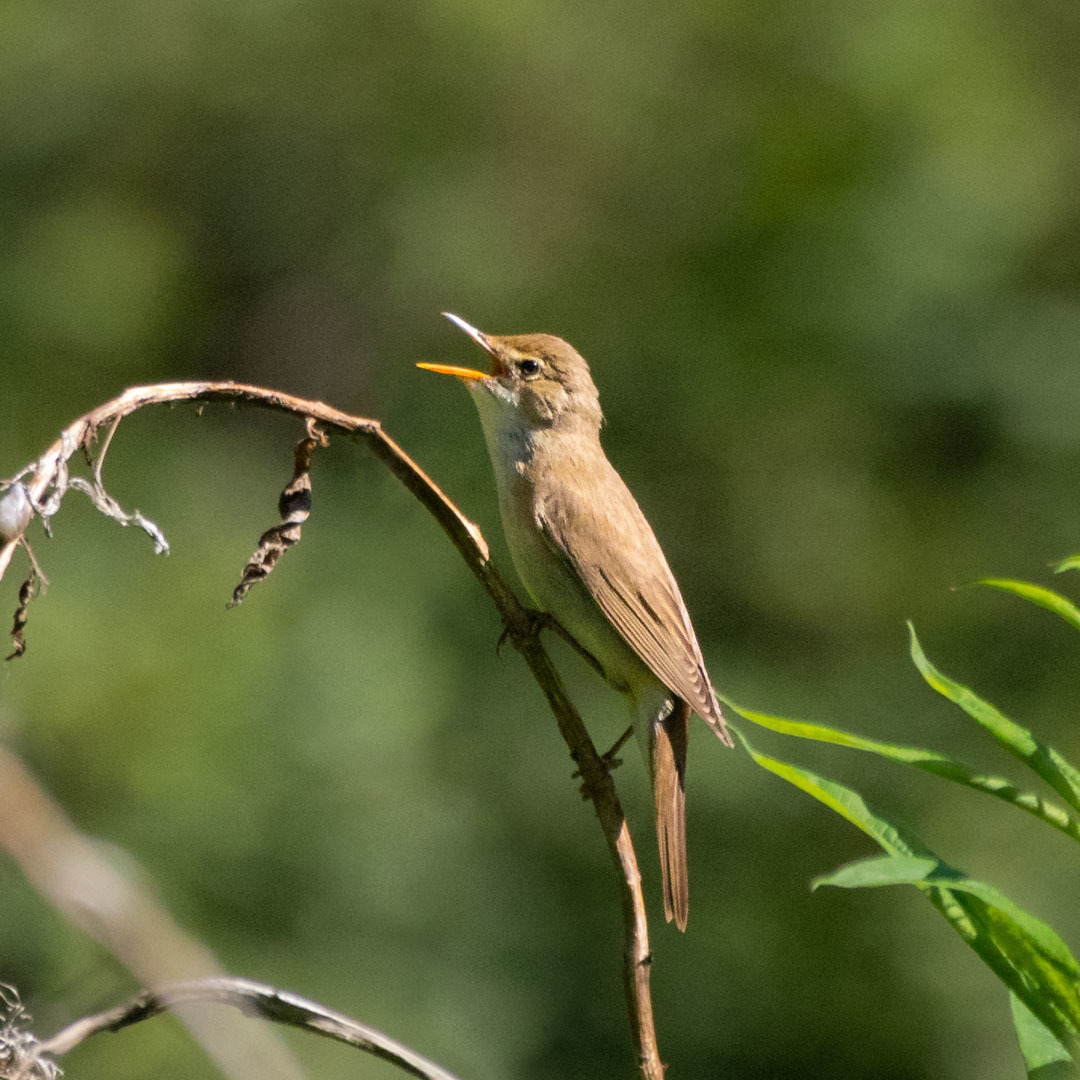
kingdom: Animalia
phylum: Chordata
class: Aves
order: Passeriformes
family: Acrocephalidae
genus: Acrocephalus
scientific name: Acrocephalus palustris
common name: Marsh warbler
